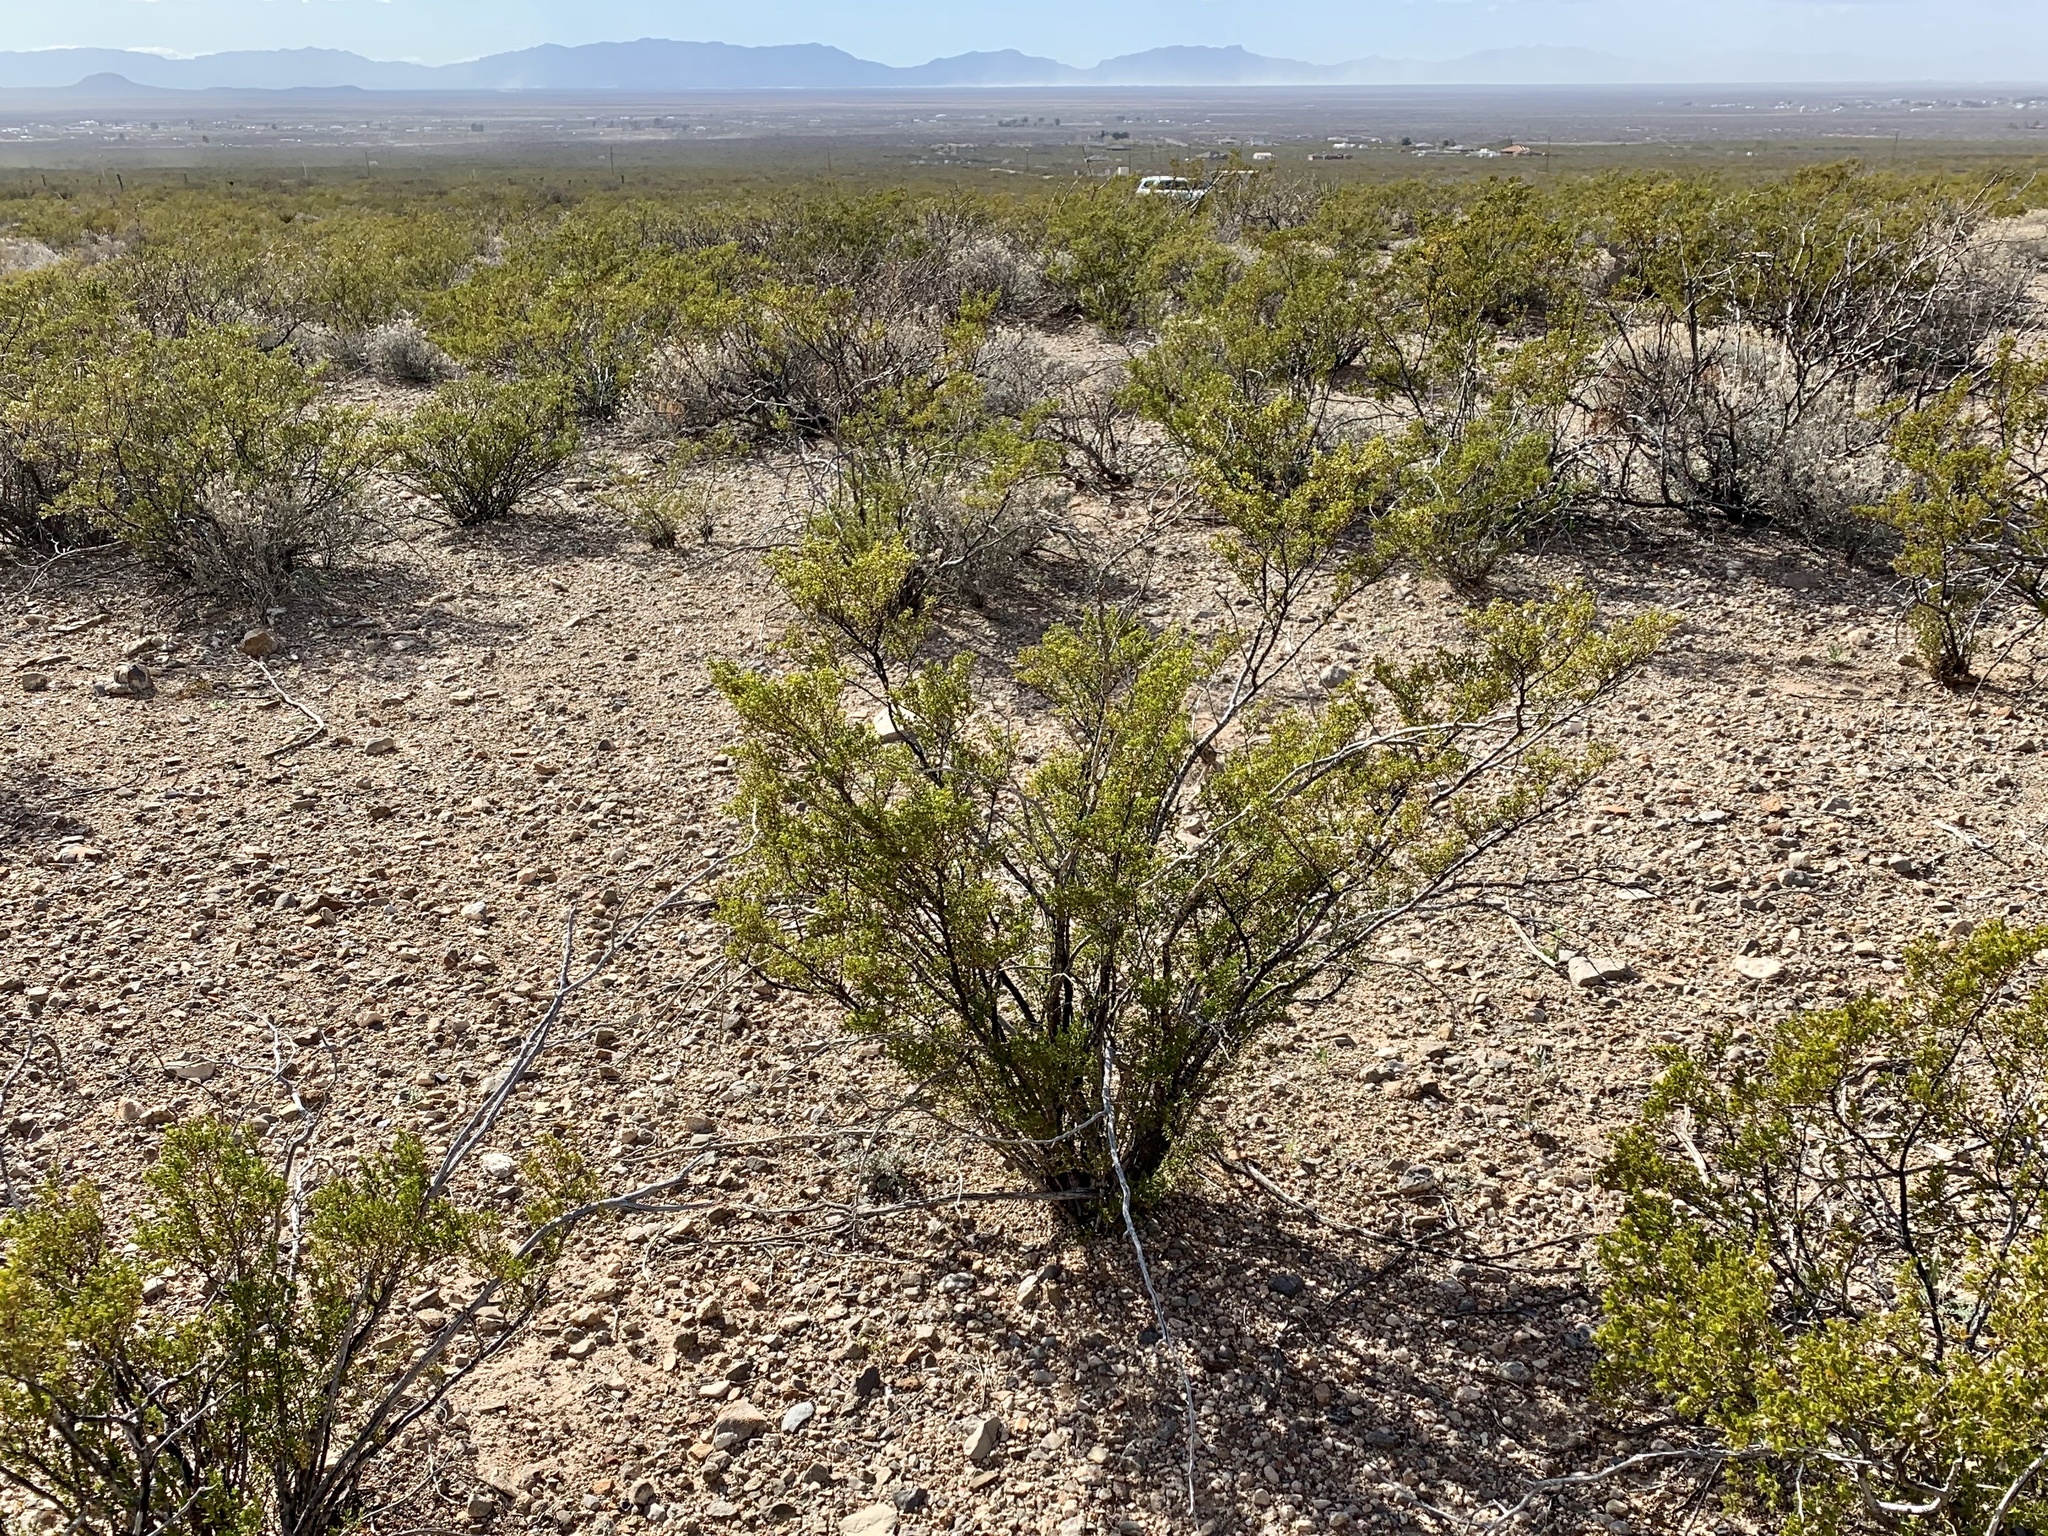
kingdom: Plantae
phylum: Tracheophyta
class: Magnoliopsida
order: Zygophyllales
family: Zygophyllaceae
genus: Larrea
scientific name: Larrea tridentata
